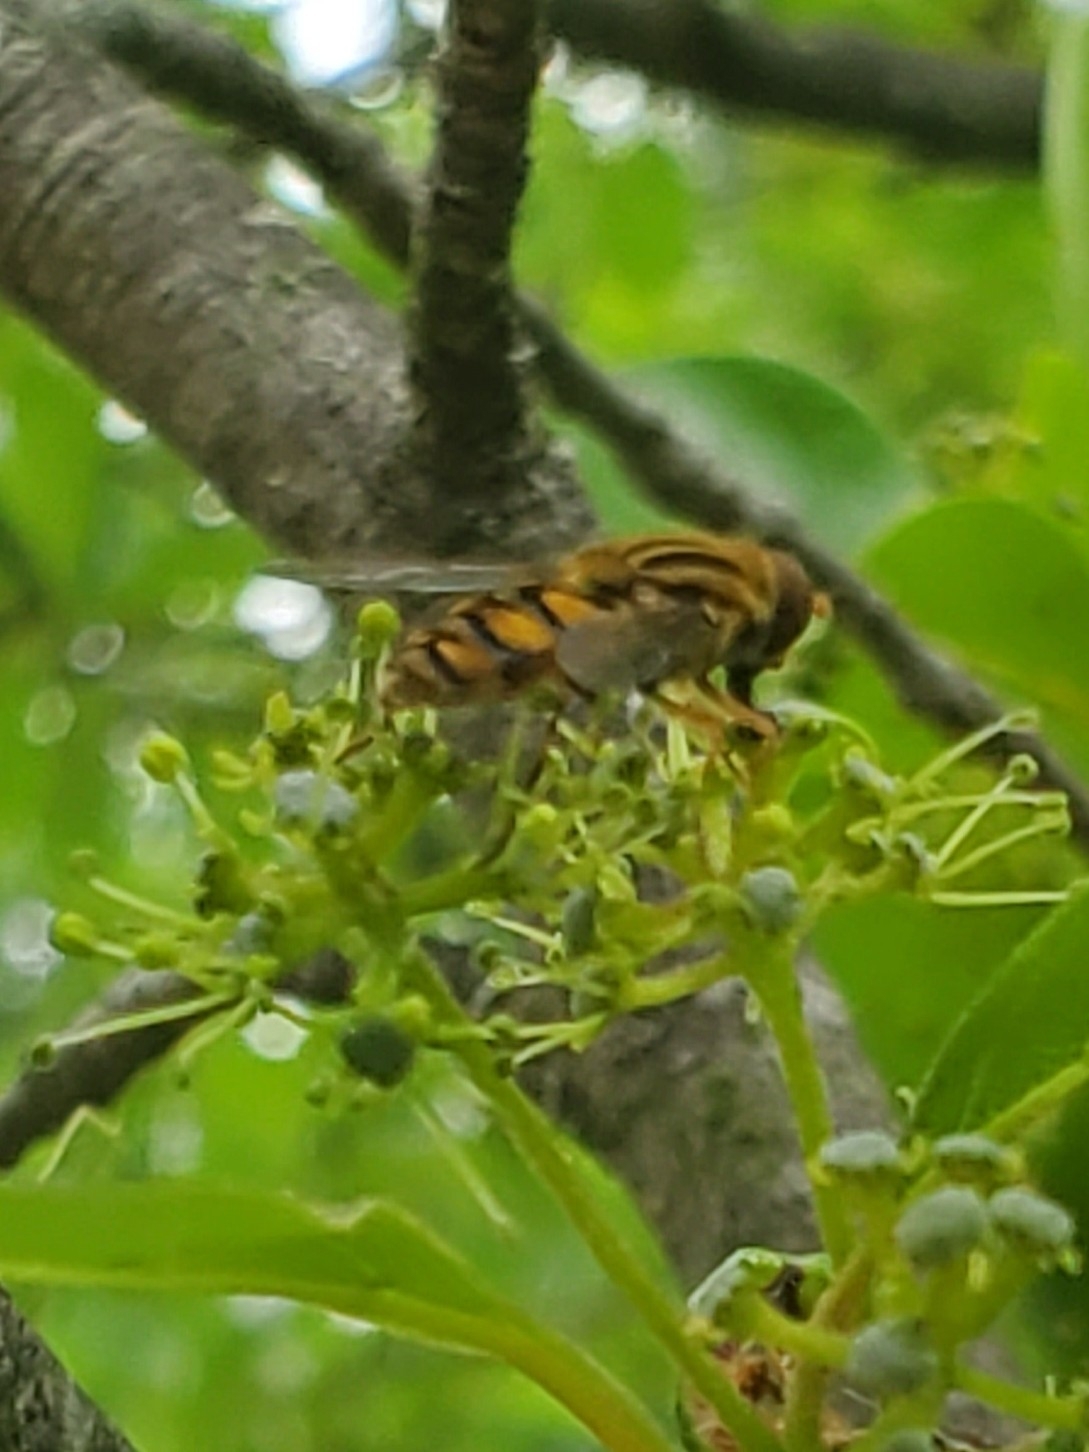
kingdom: Animalia
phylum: Arthropoda
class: Insecta
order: Diptera
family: Syrphidae
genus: Parhelophilus
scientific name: Parhelophilus integer
